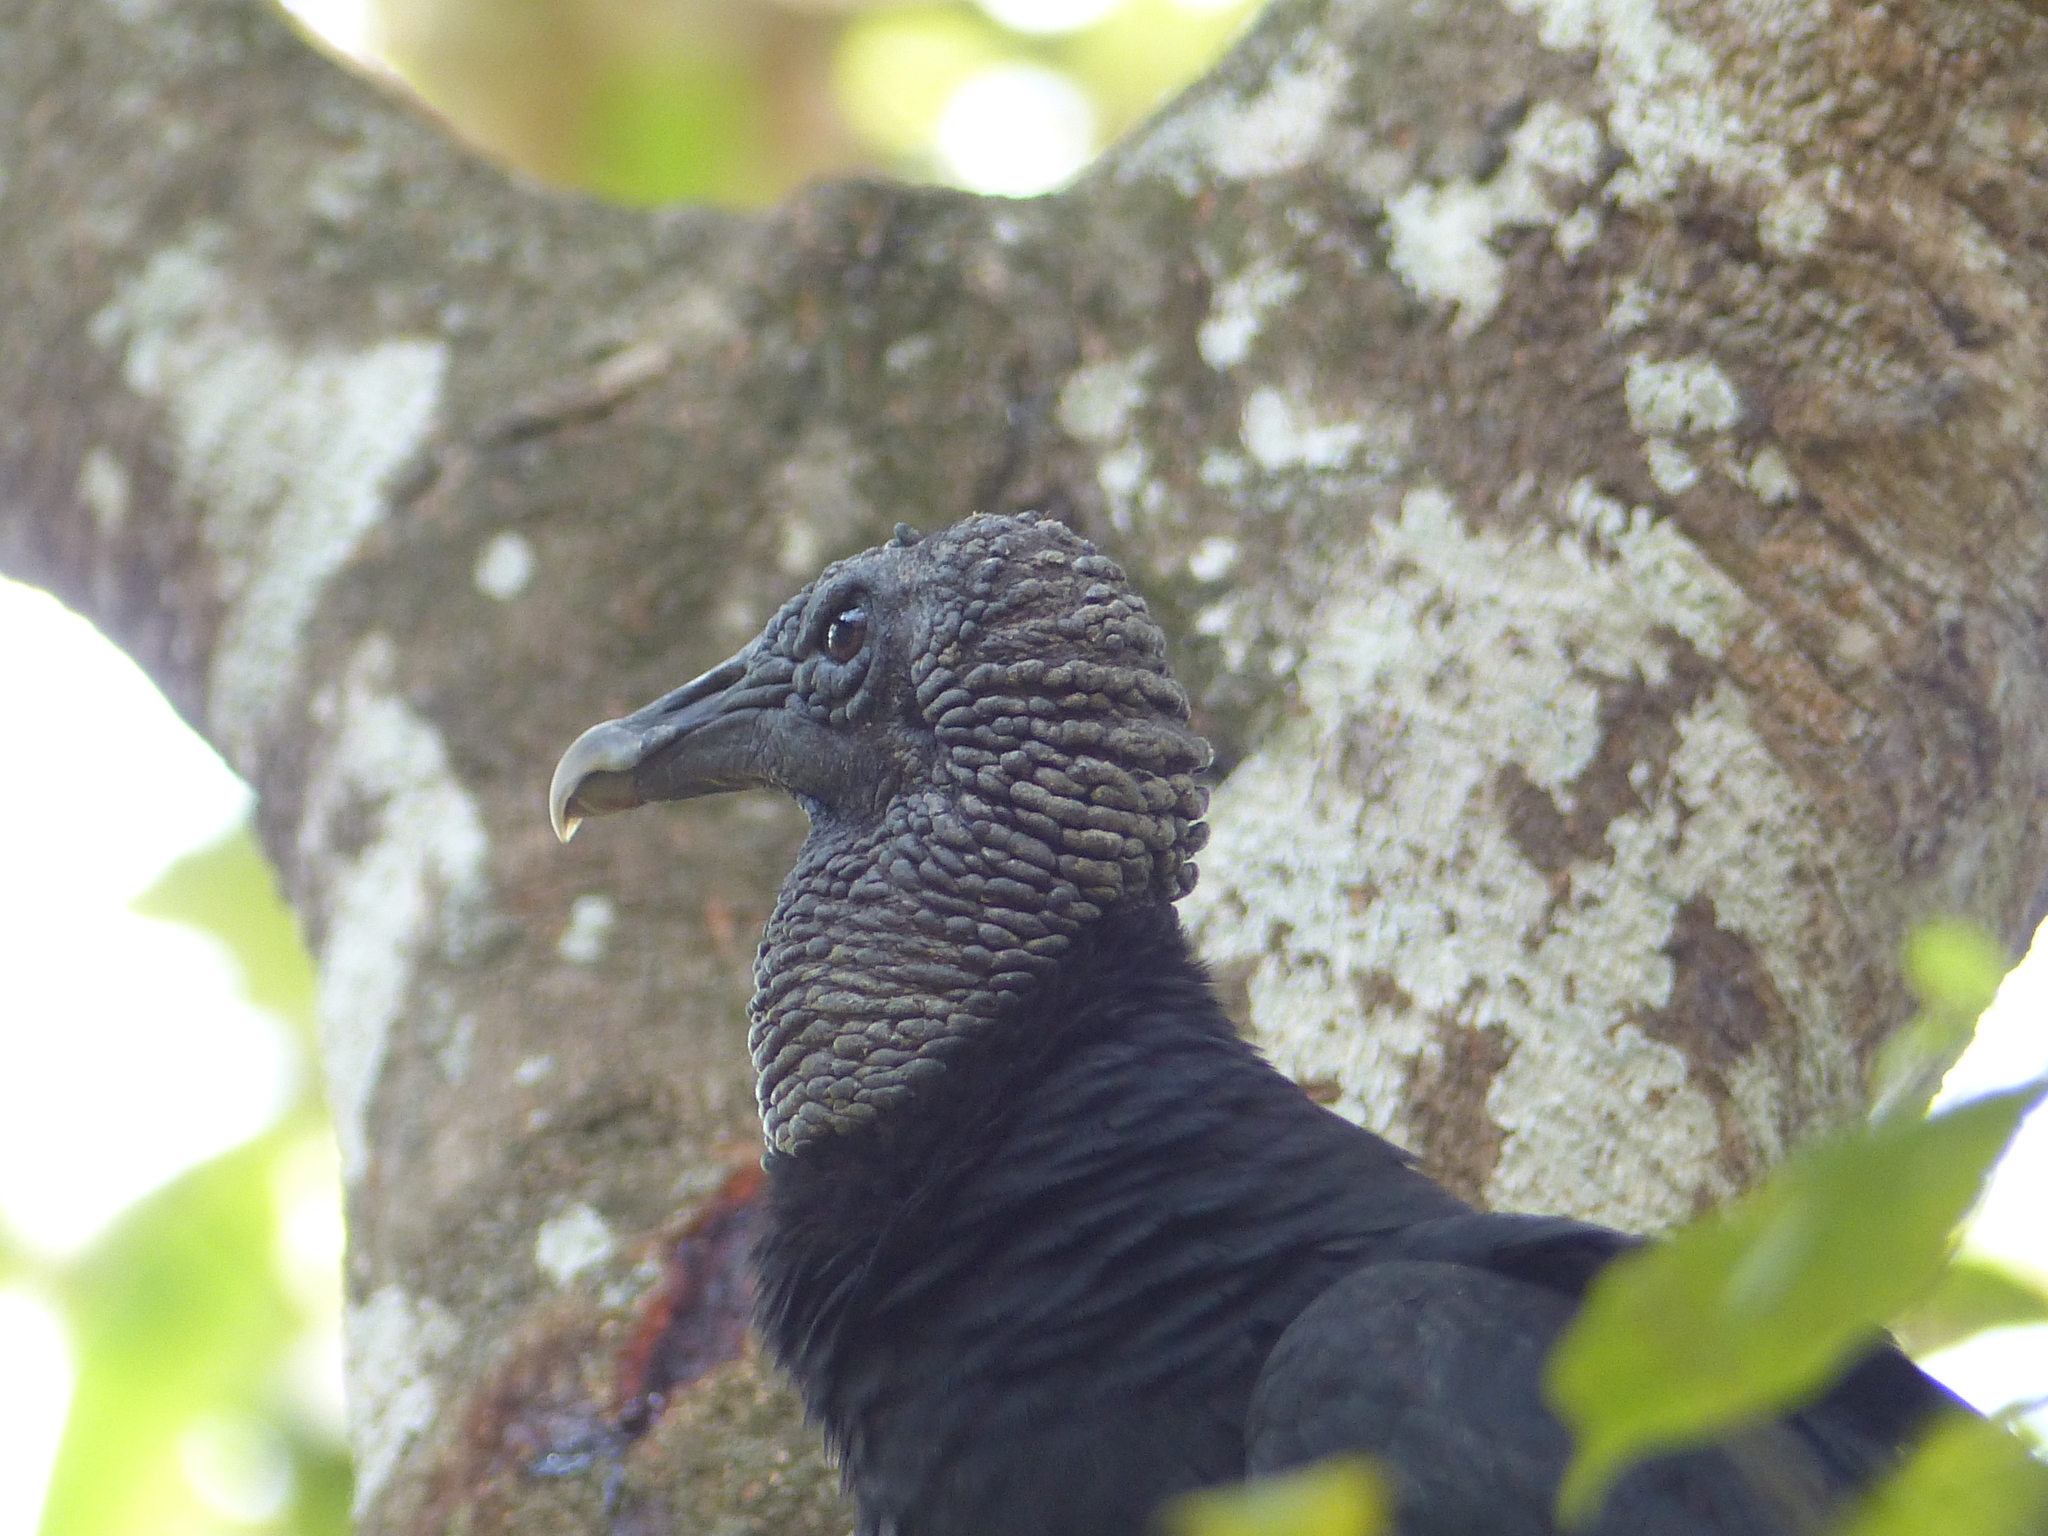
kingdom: Animalia
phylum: Chordata
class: Aves
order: Accipitriformes
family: Cathartidae
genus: Coragyps
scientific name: Coragyps atratus
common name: Black vulture
